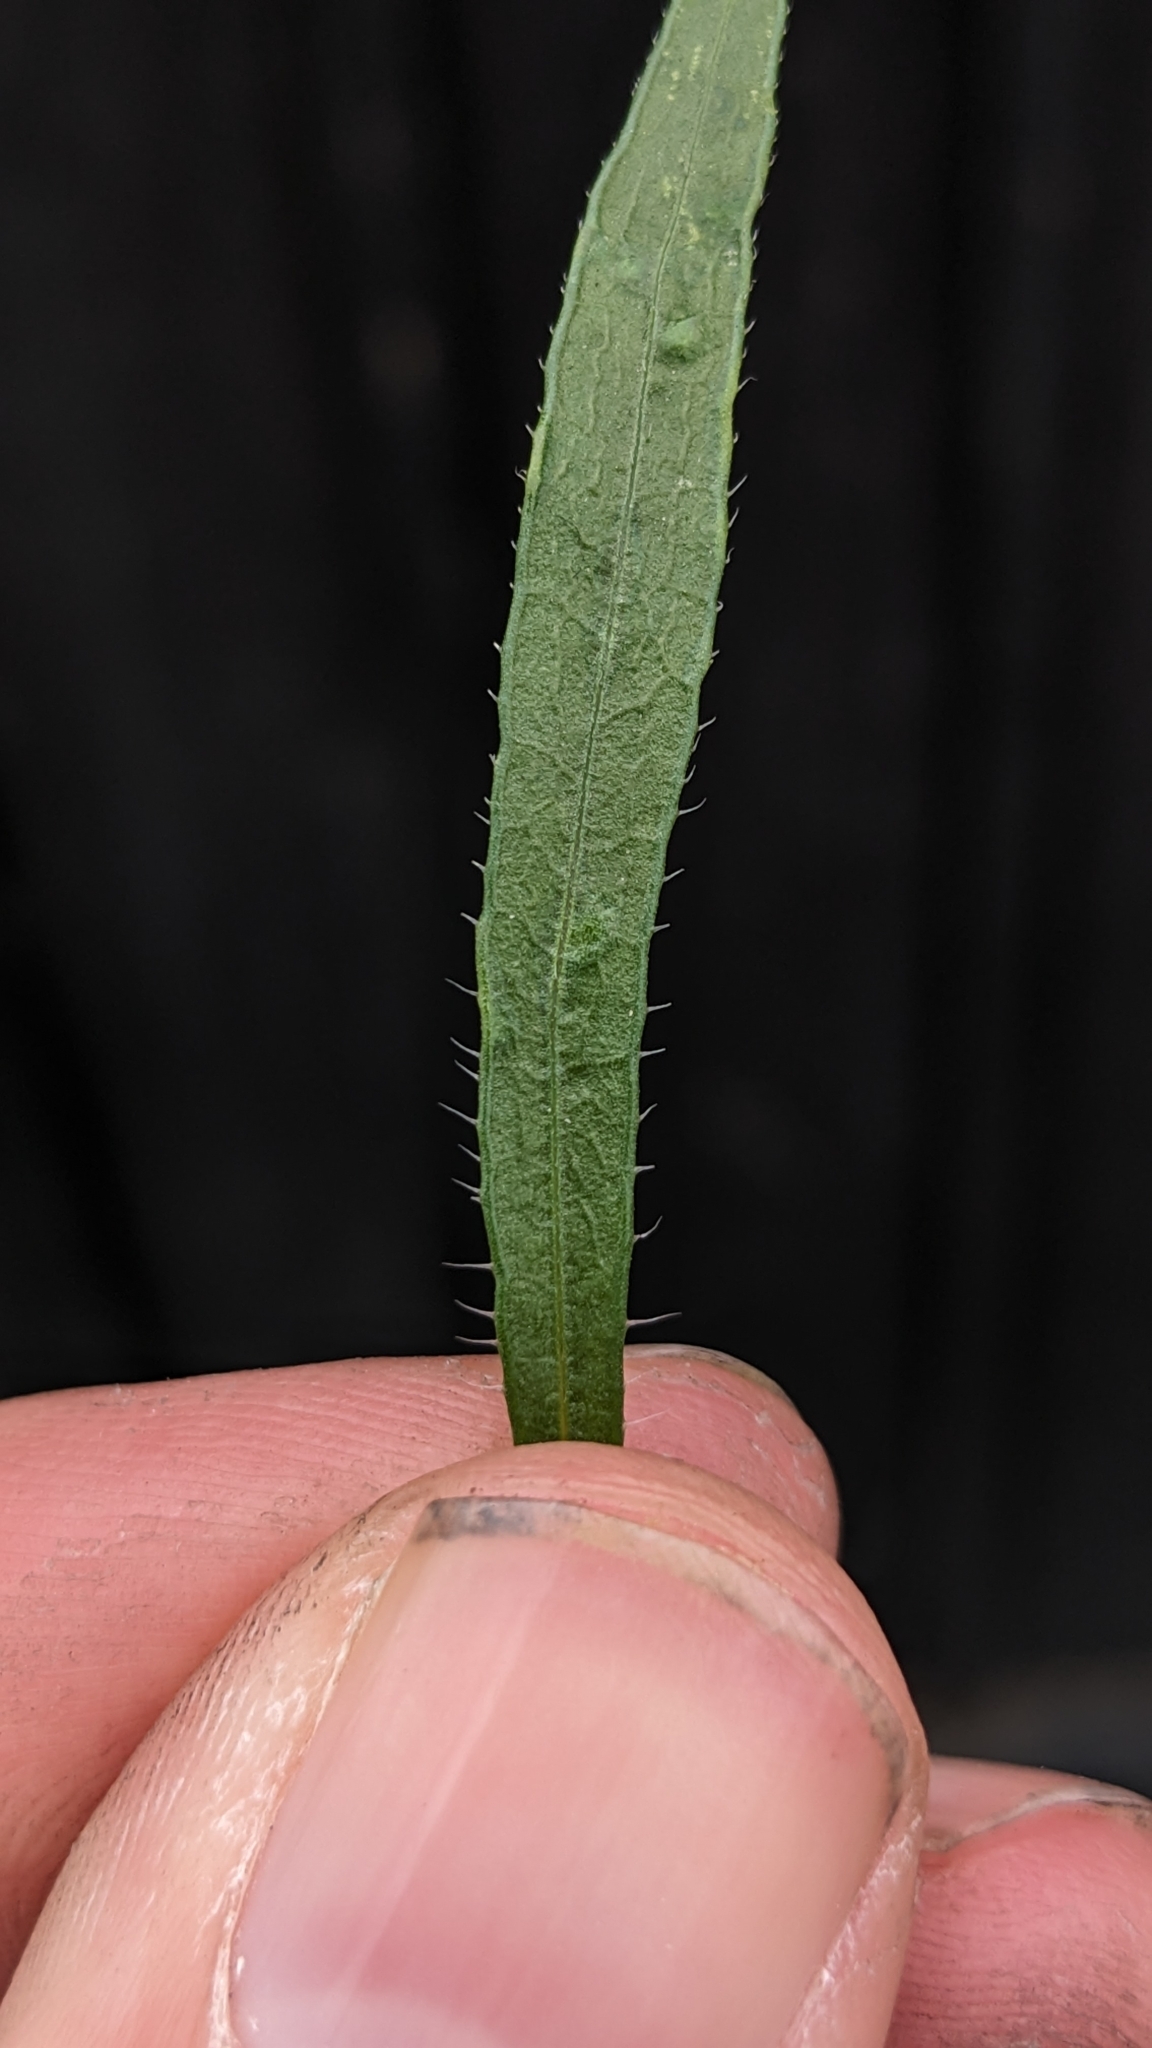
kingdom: Plantae
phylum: Tracheophyta
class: Magnoliopsida
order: Asterales
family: Asteraceae
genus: Erigeron
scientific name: Erigeron canadensis
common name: Canadian fleabane
